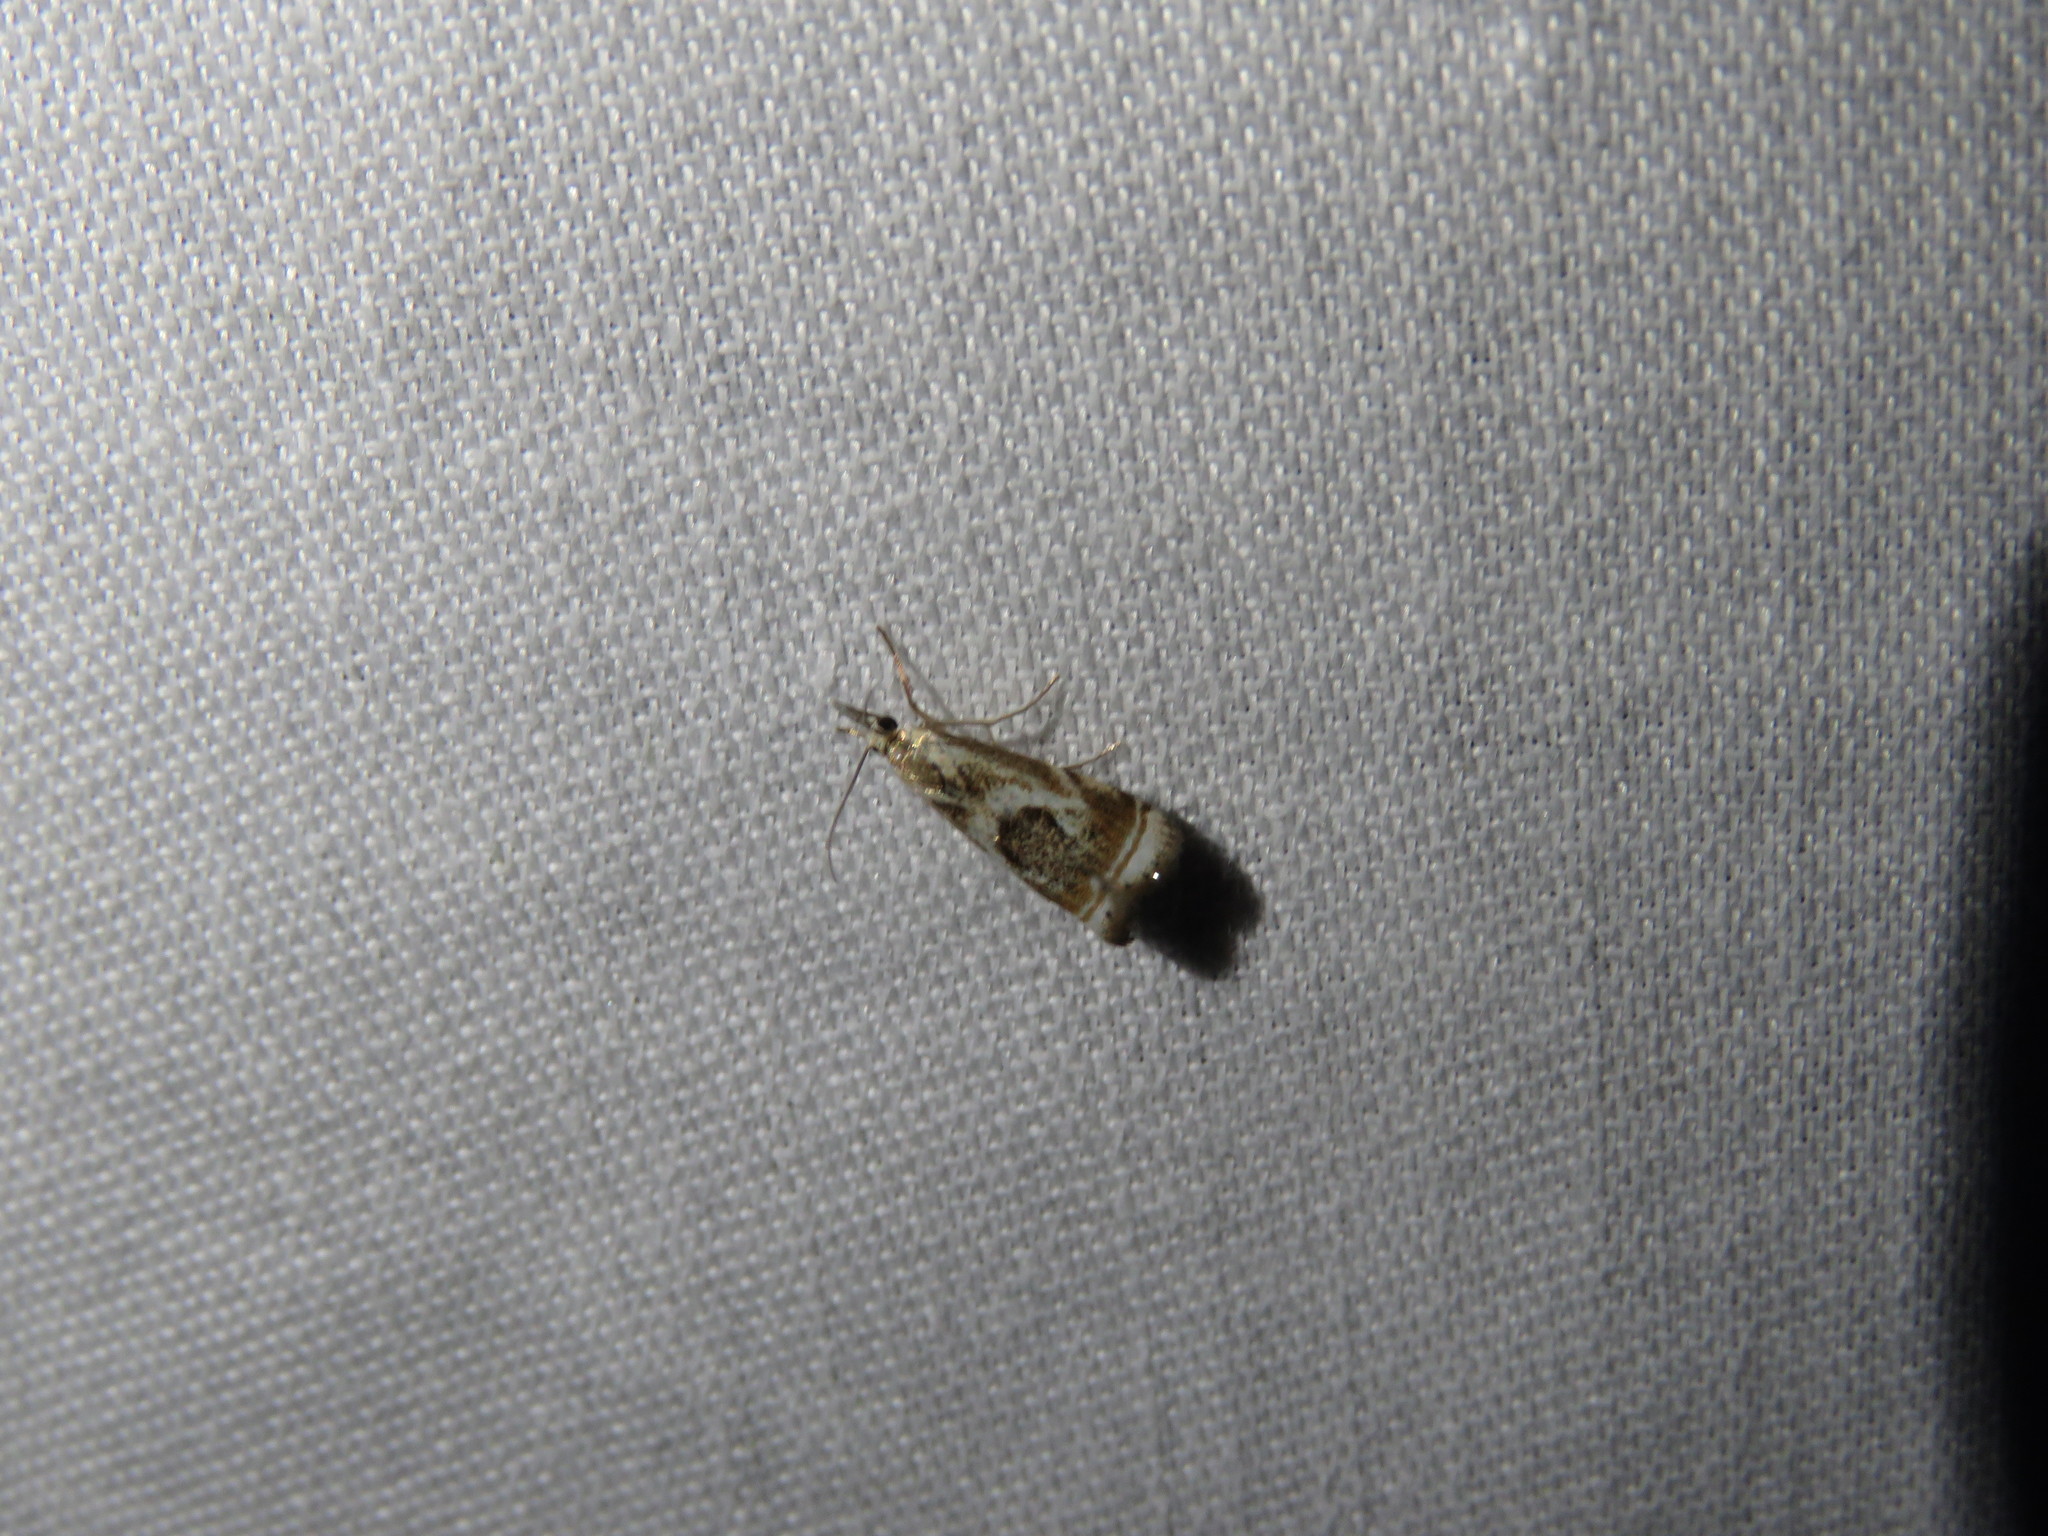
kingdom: Animalia
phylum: Arthropoda
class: Insecta
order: Lepidoptera
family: Crambidae
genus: Microcrambus
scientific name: Microcrambus elegans
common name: Elegant grass-veneer
